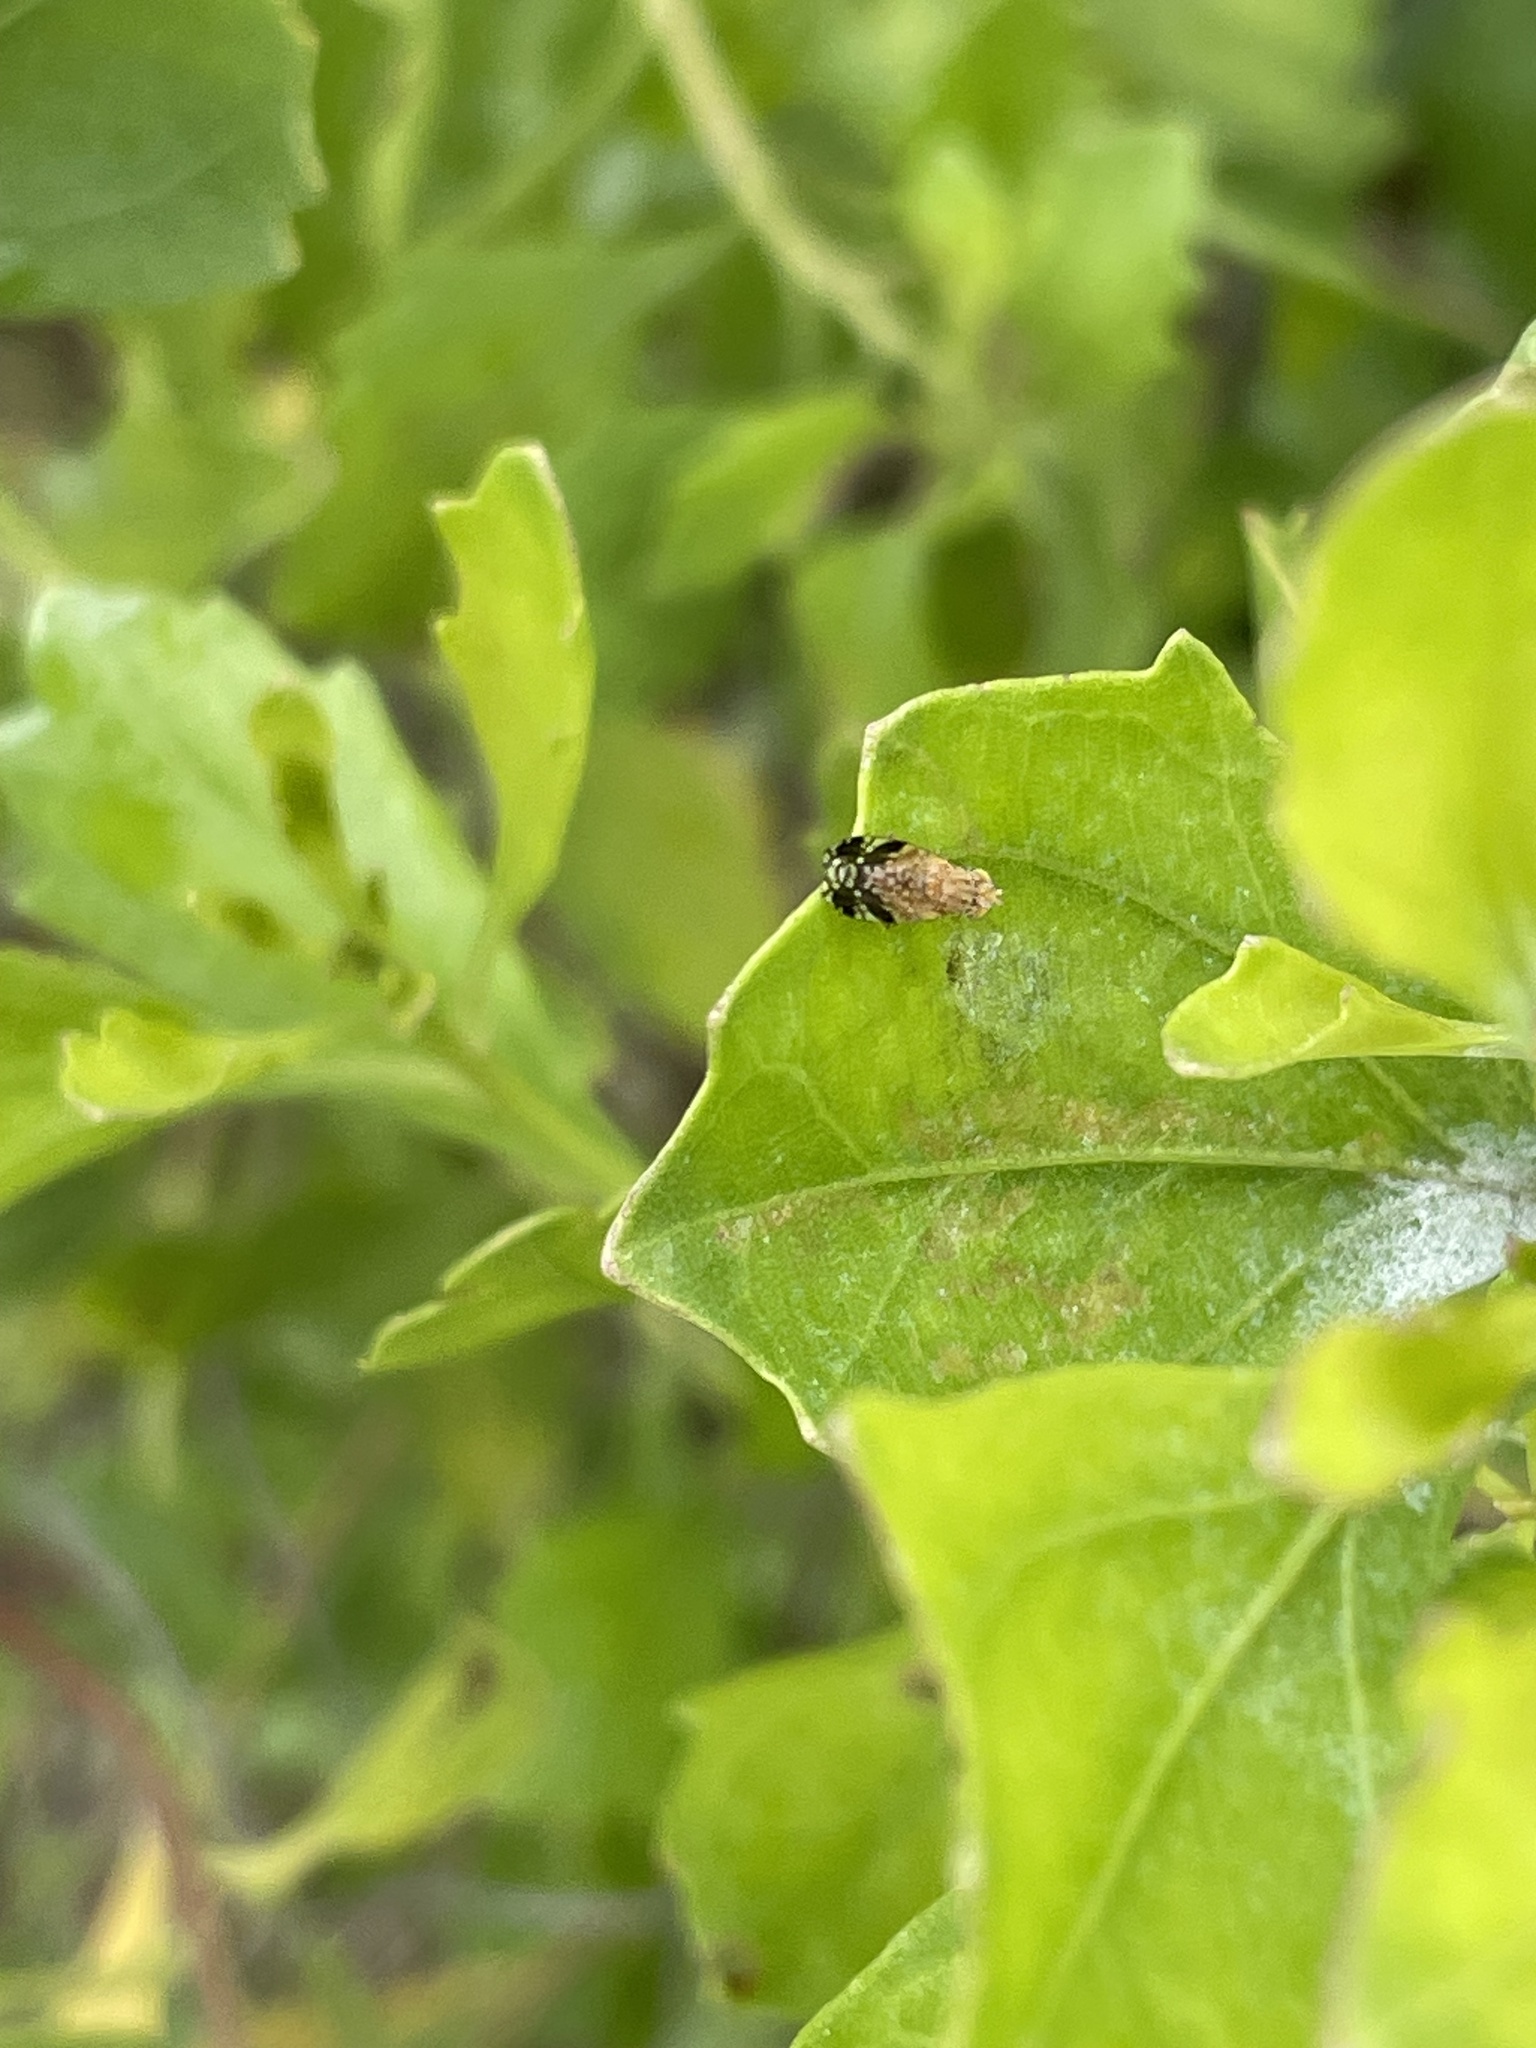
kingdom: Animalia
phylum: Arthropoda
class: Insecta
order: Diptera
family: Tephritidae
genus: Tephritis
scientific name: Tephritis subpura
